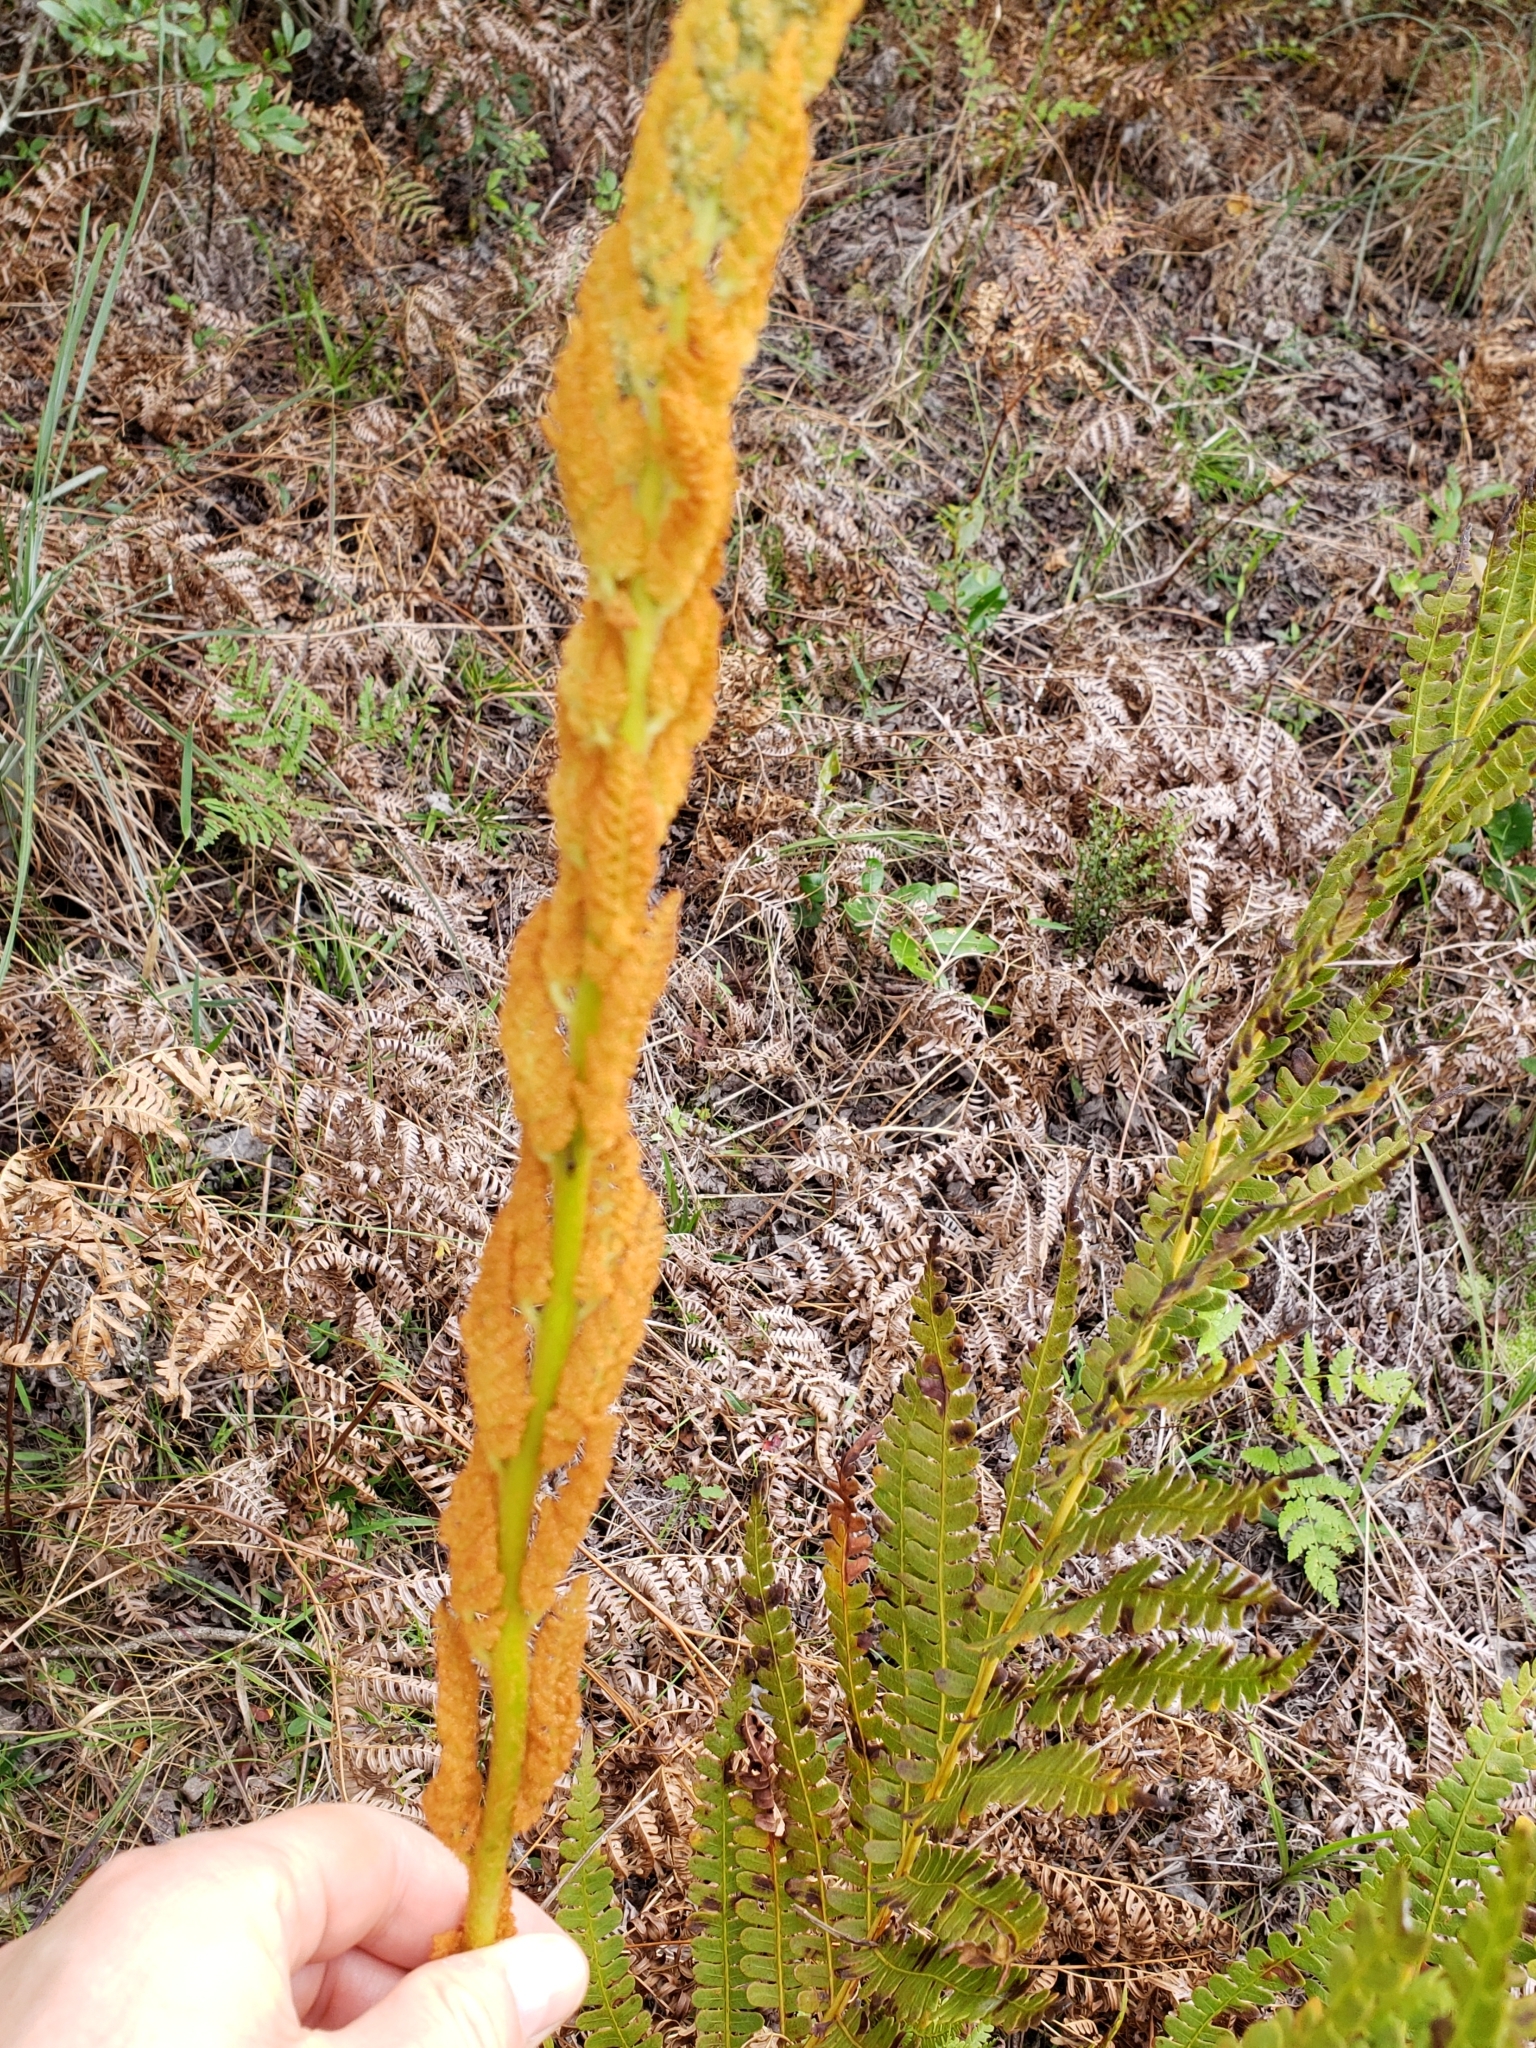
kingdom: Plantae
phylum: Tracheophyta
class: Polypodiopsida
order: Osmundales
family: Osmundaceae
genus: Osmundastrum
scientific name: Osmundastrum cinnamomeum
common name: Cinnamon fern
